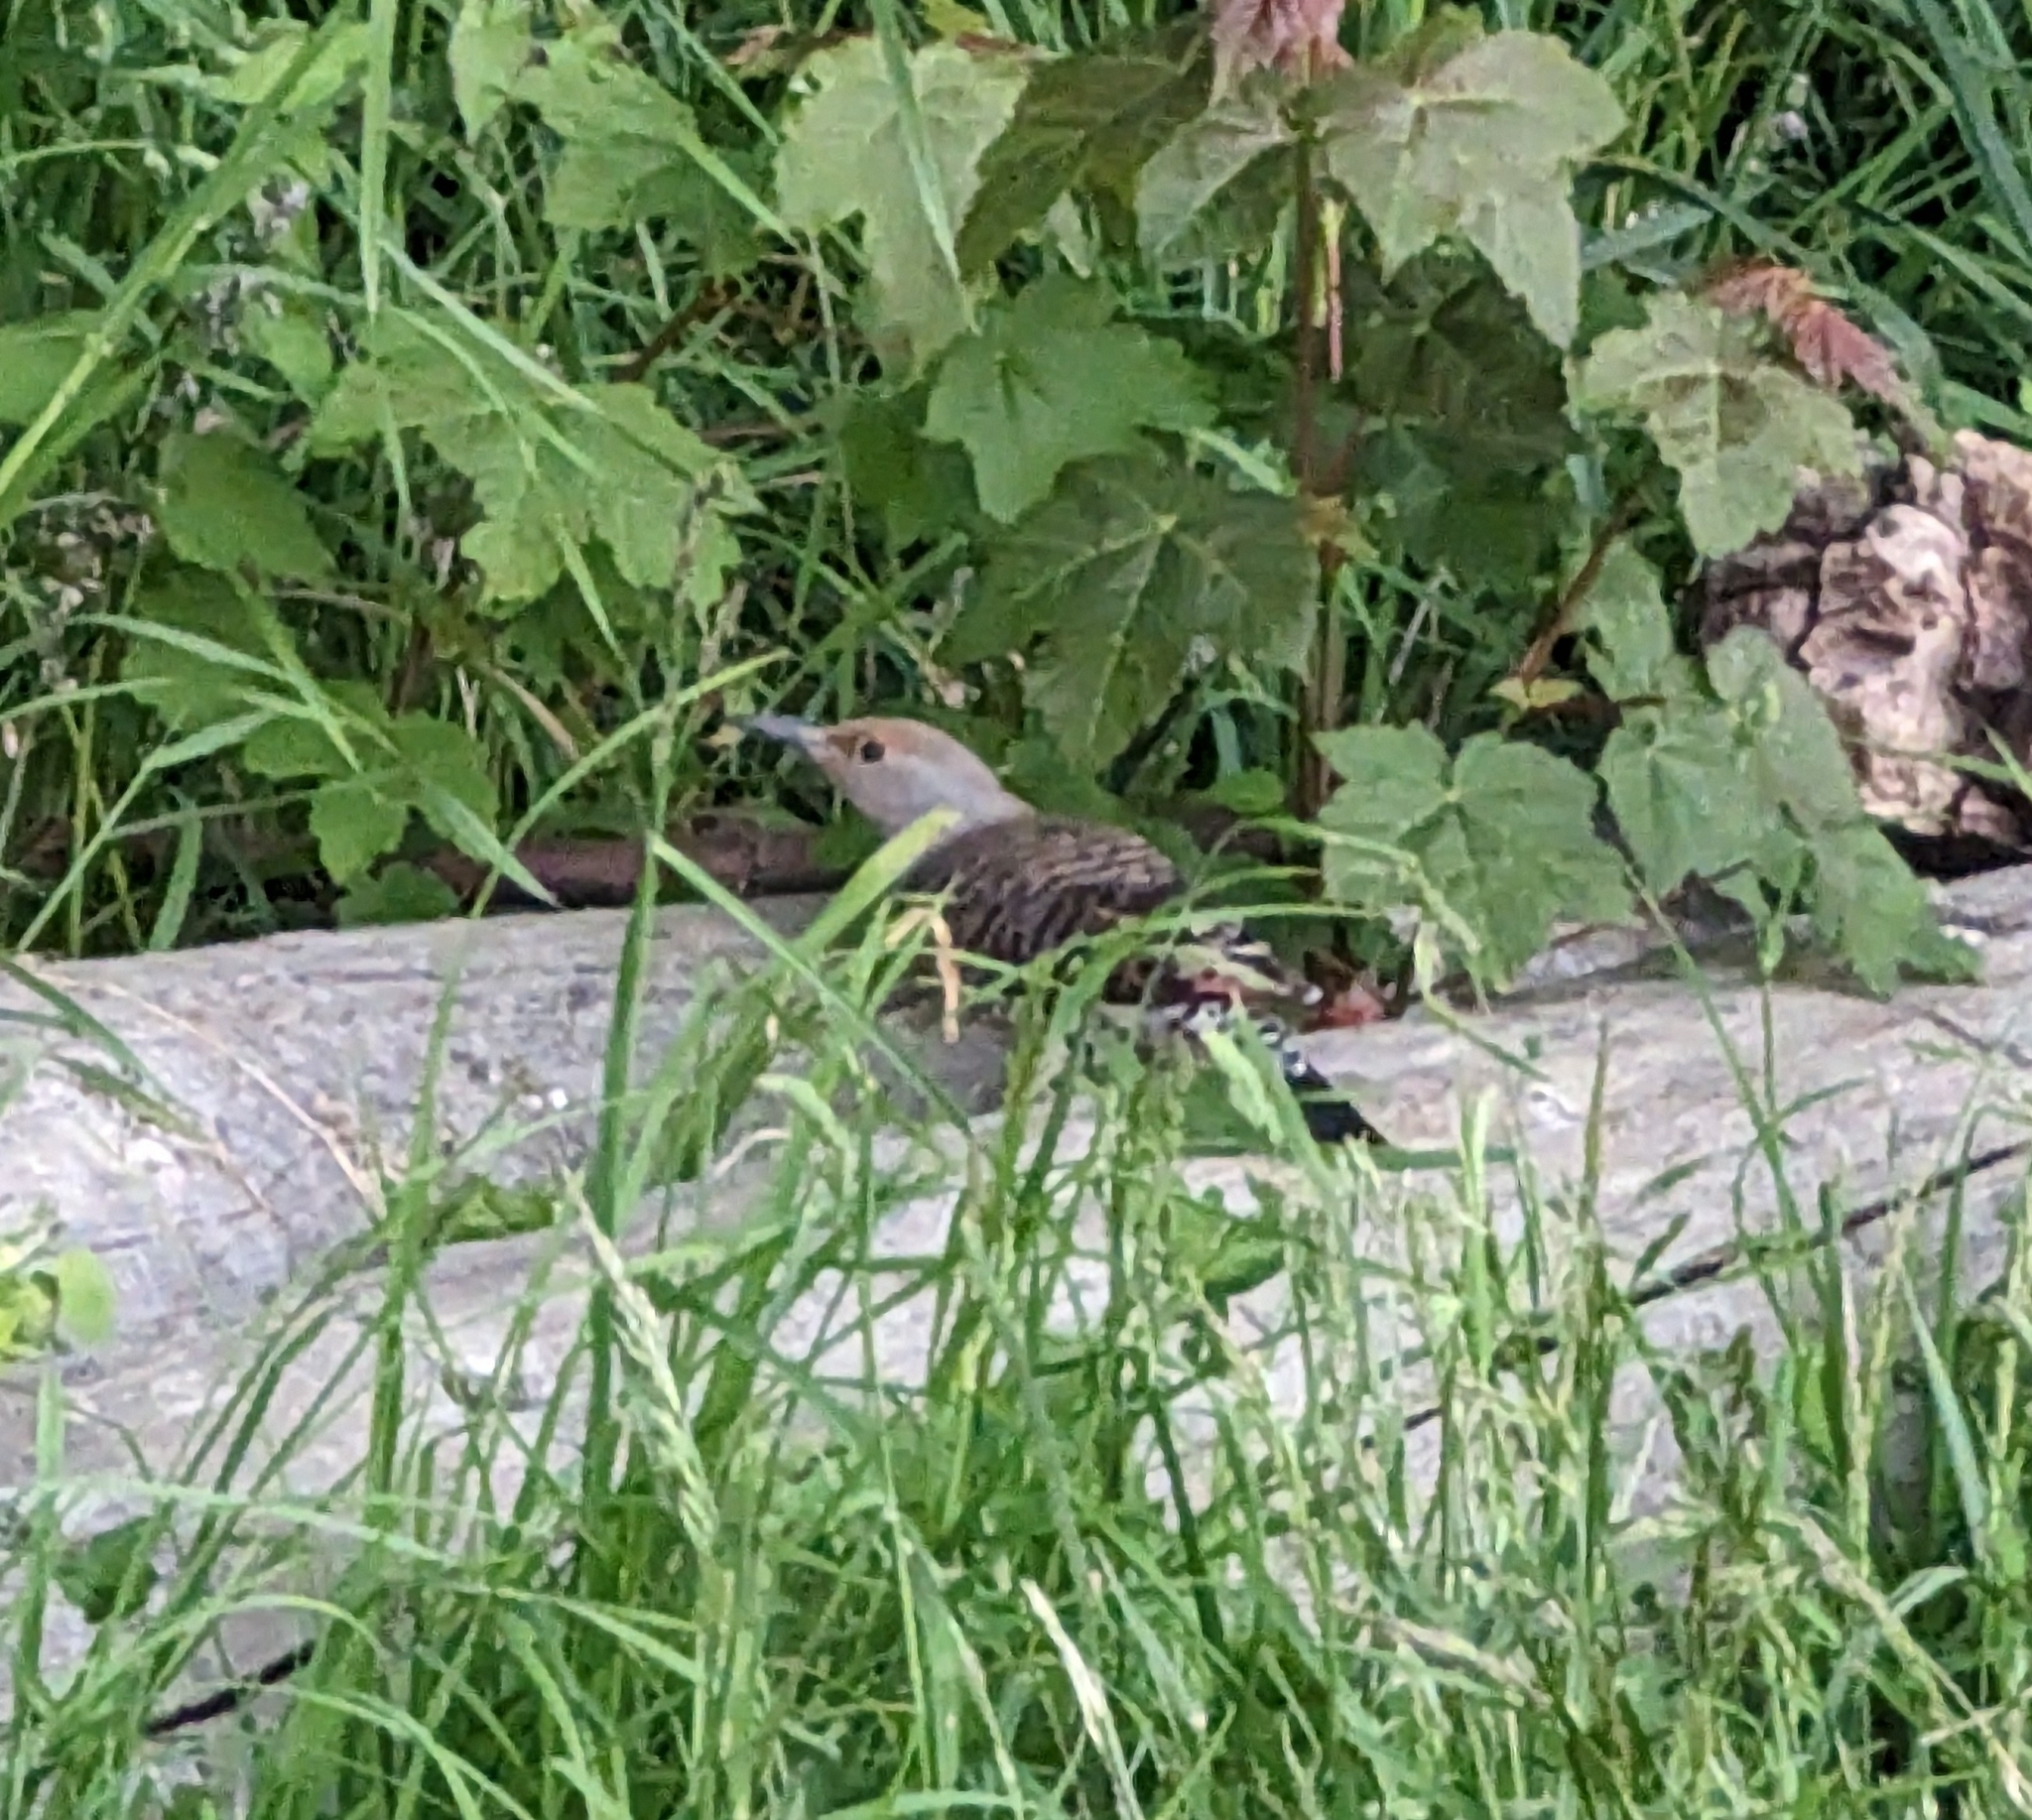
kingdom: Animalia
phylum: Chordata
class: Aves
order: Piciformes
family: Picidae
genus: Colaptes
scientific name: Colaptes auratus
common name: Northern flicker
